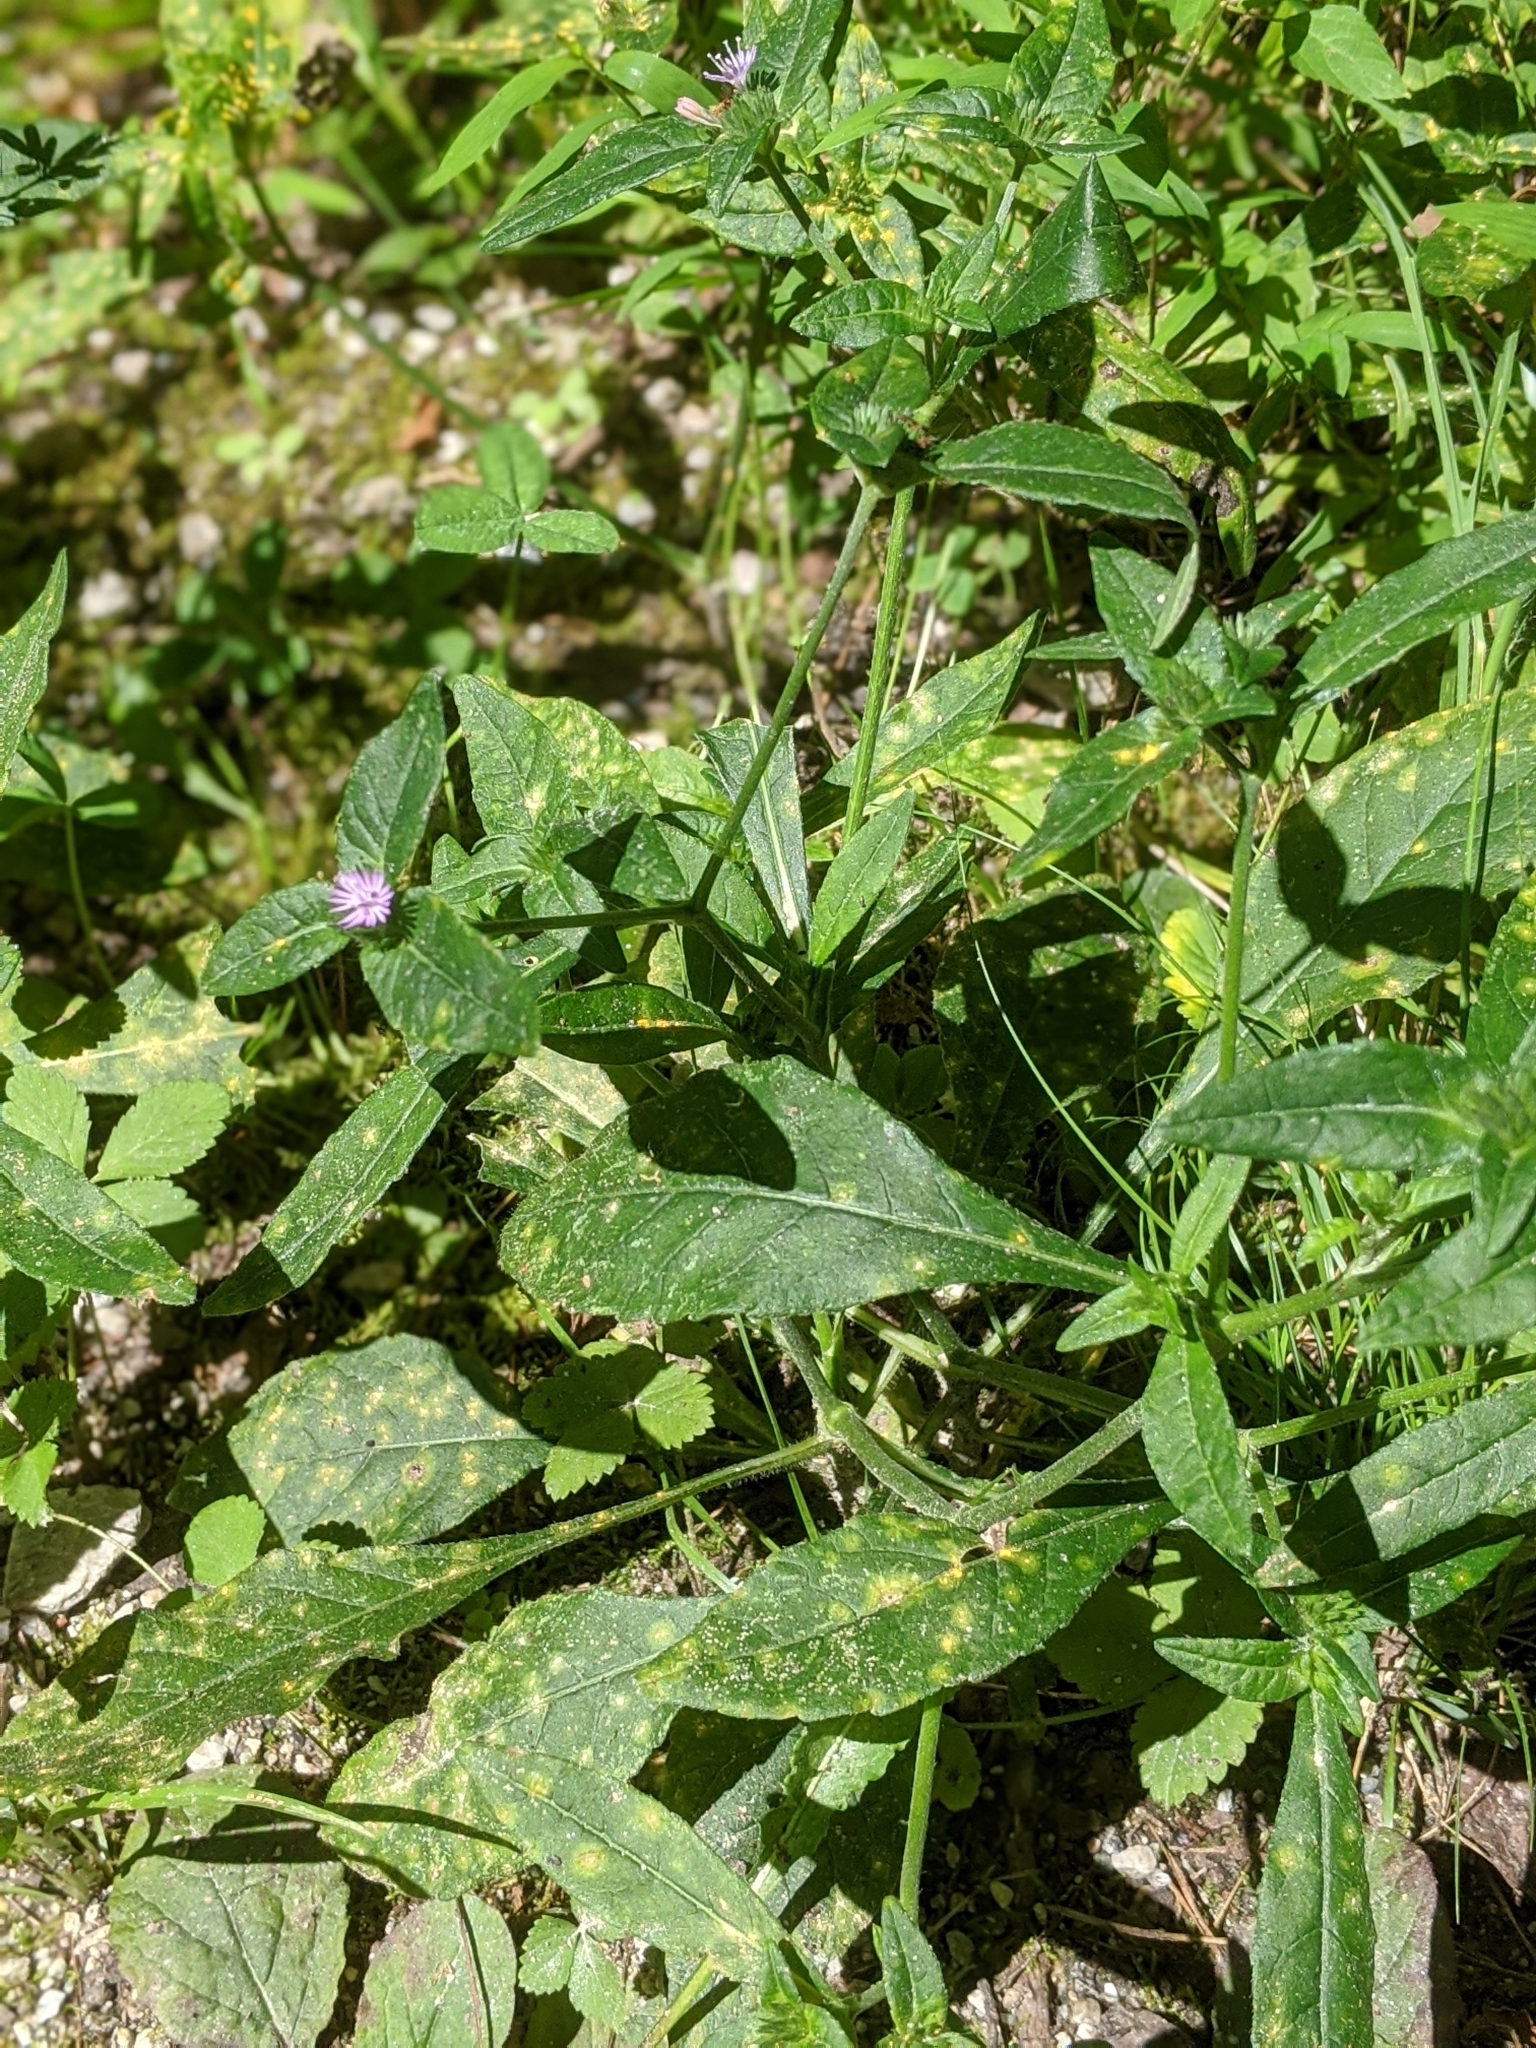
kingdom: Plantae
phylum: Tracheophyta
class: Magnoliopsida
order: Asterales
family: Asteraceae
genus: Elephantopus
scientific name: Elephantopus carolinianus
